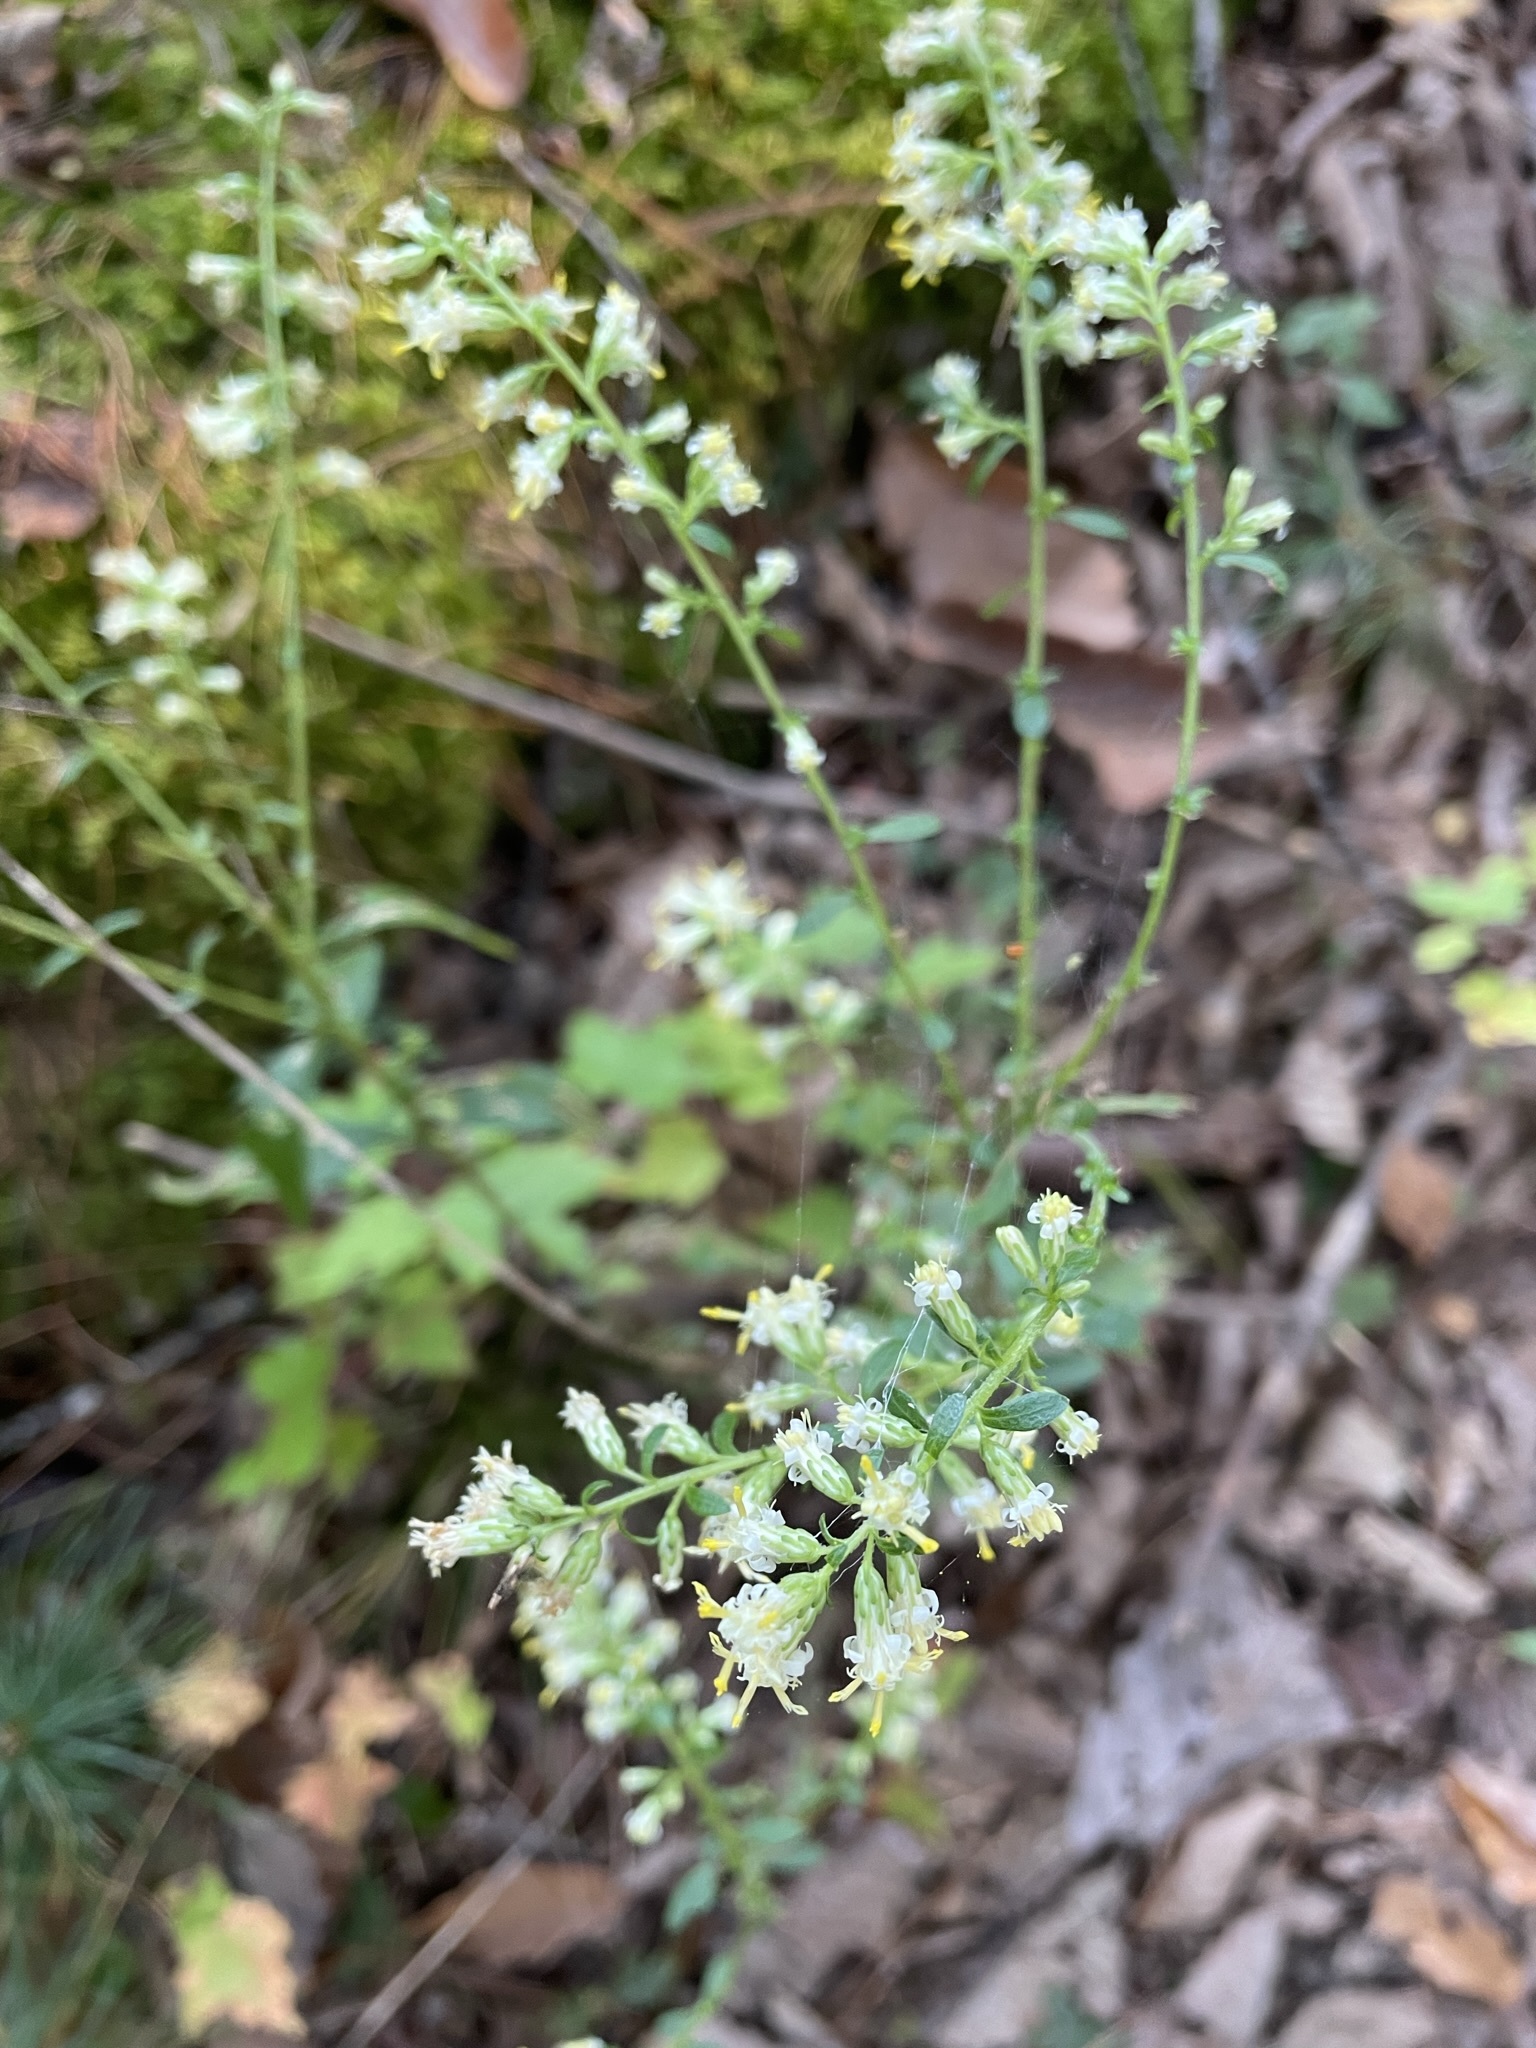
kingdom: Plantae
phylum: Tracheophyta
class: Magnoliopsida
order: Asterales
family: Asteraceae
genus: Solidago
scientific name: Solidago bicolor
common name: Silverrod
